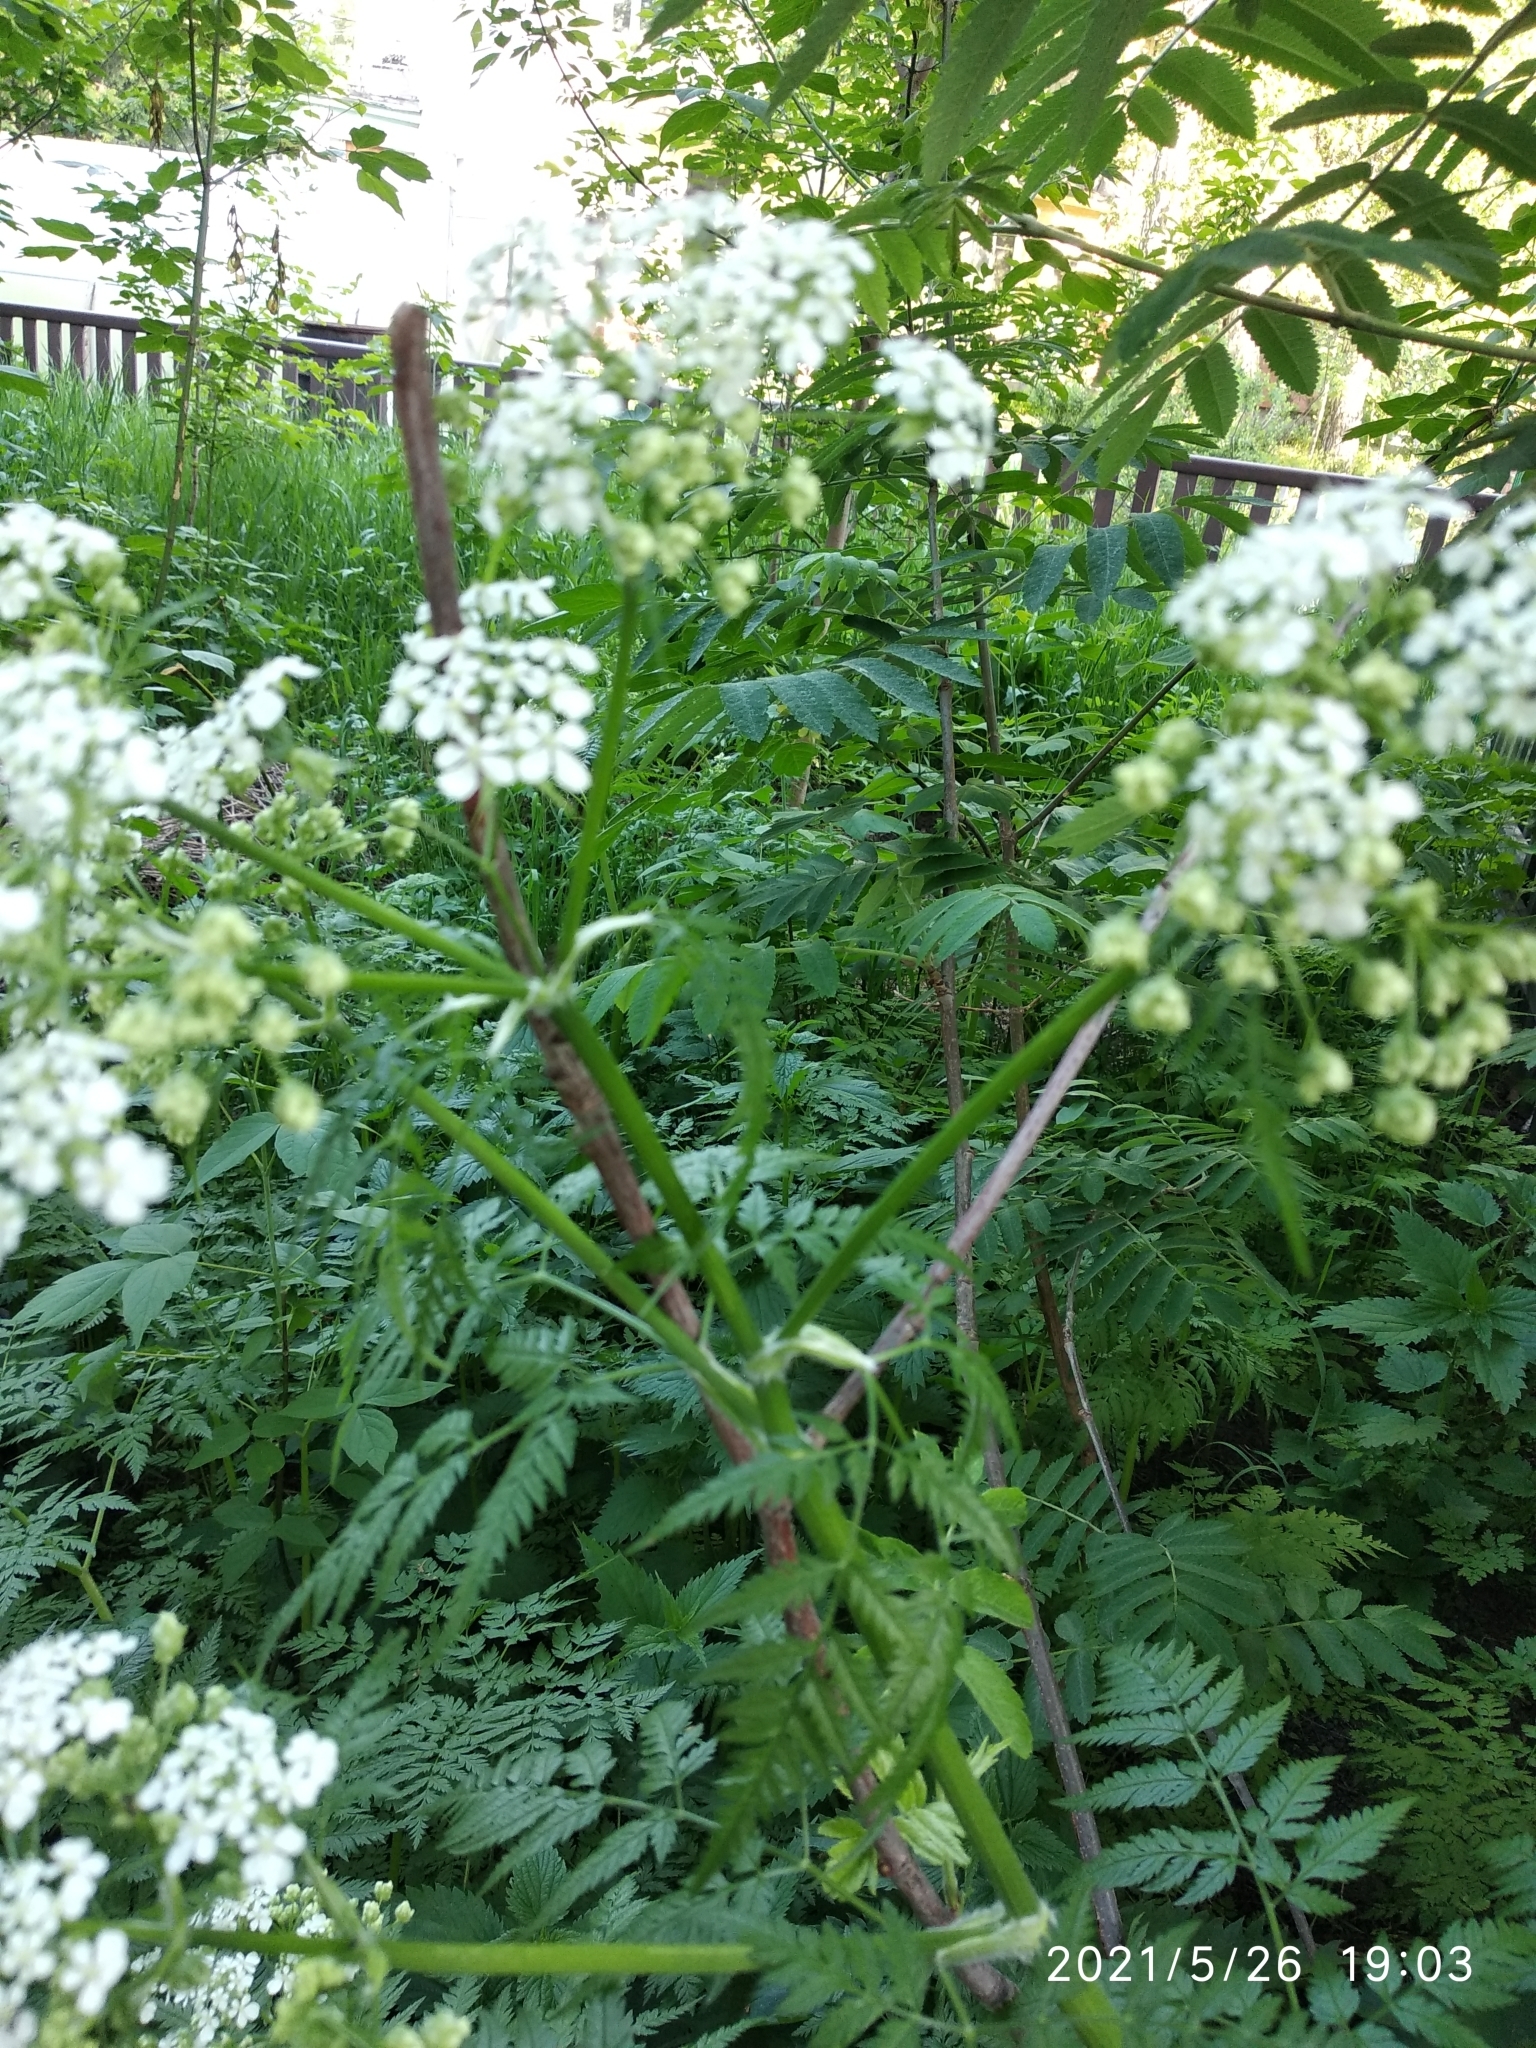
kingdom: Plantae
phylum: Tracheophyta
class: Magnoliopsida
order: Apiales
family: Apiaceae
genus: Anthriscus
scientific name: Anthriscus sylvestris
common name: Cow parsley
